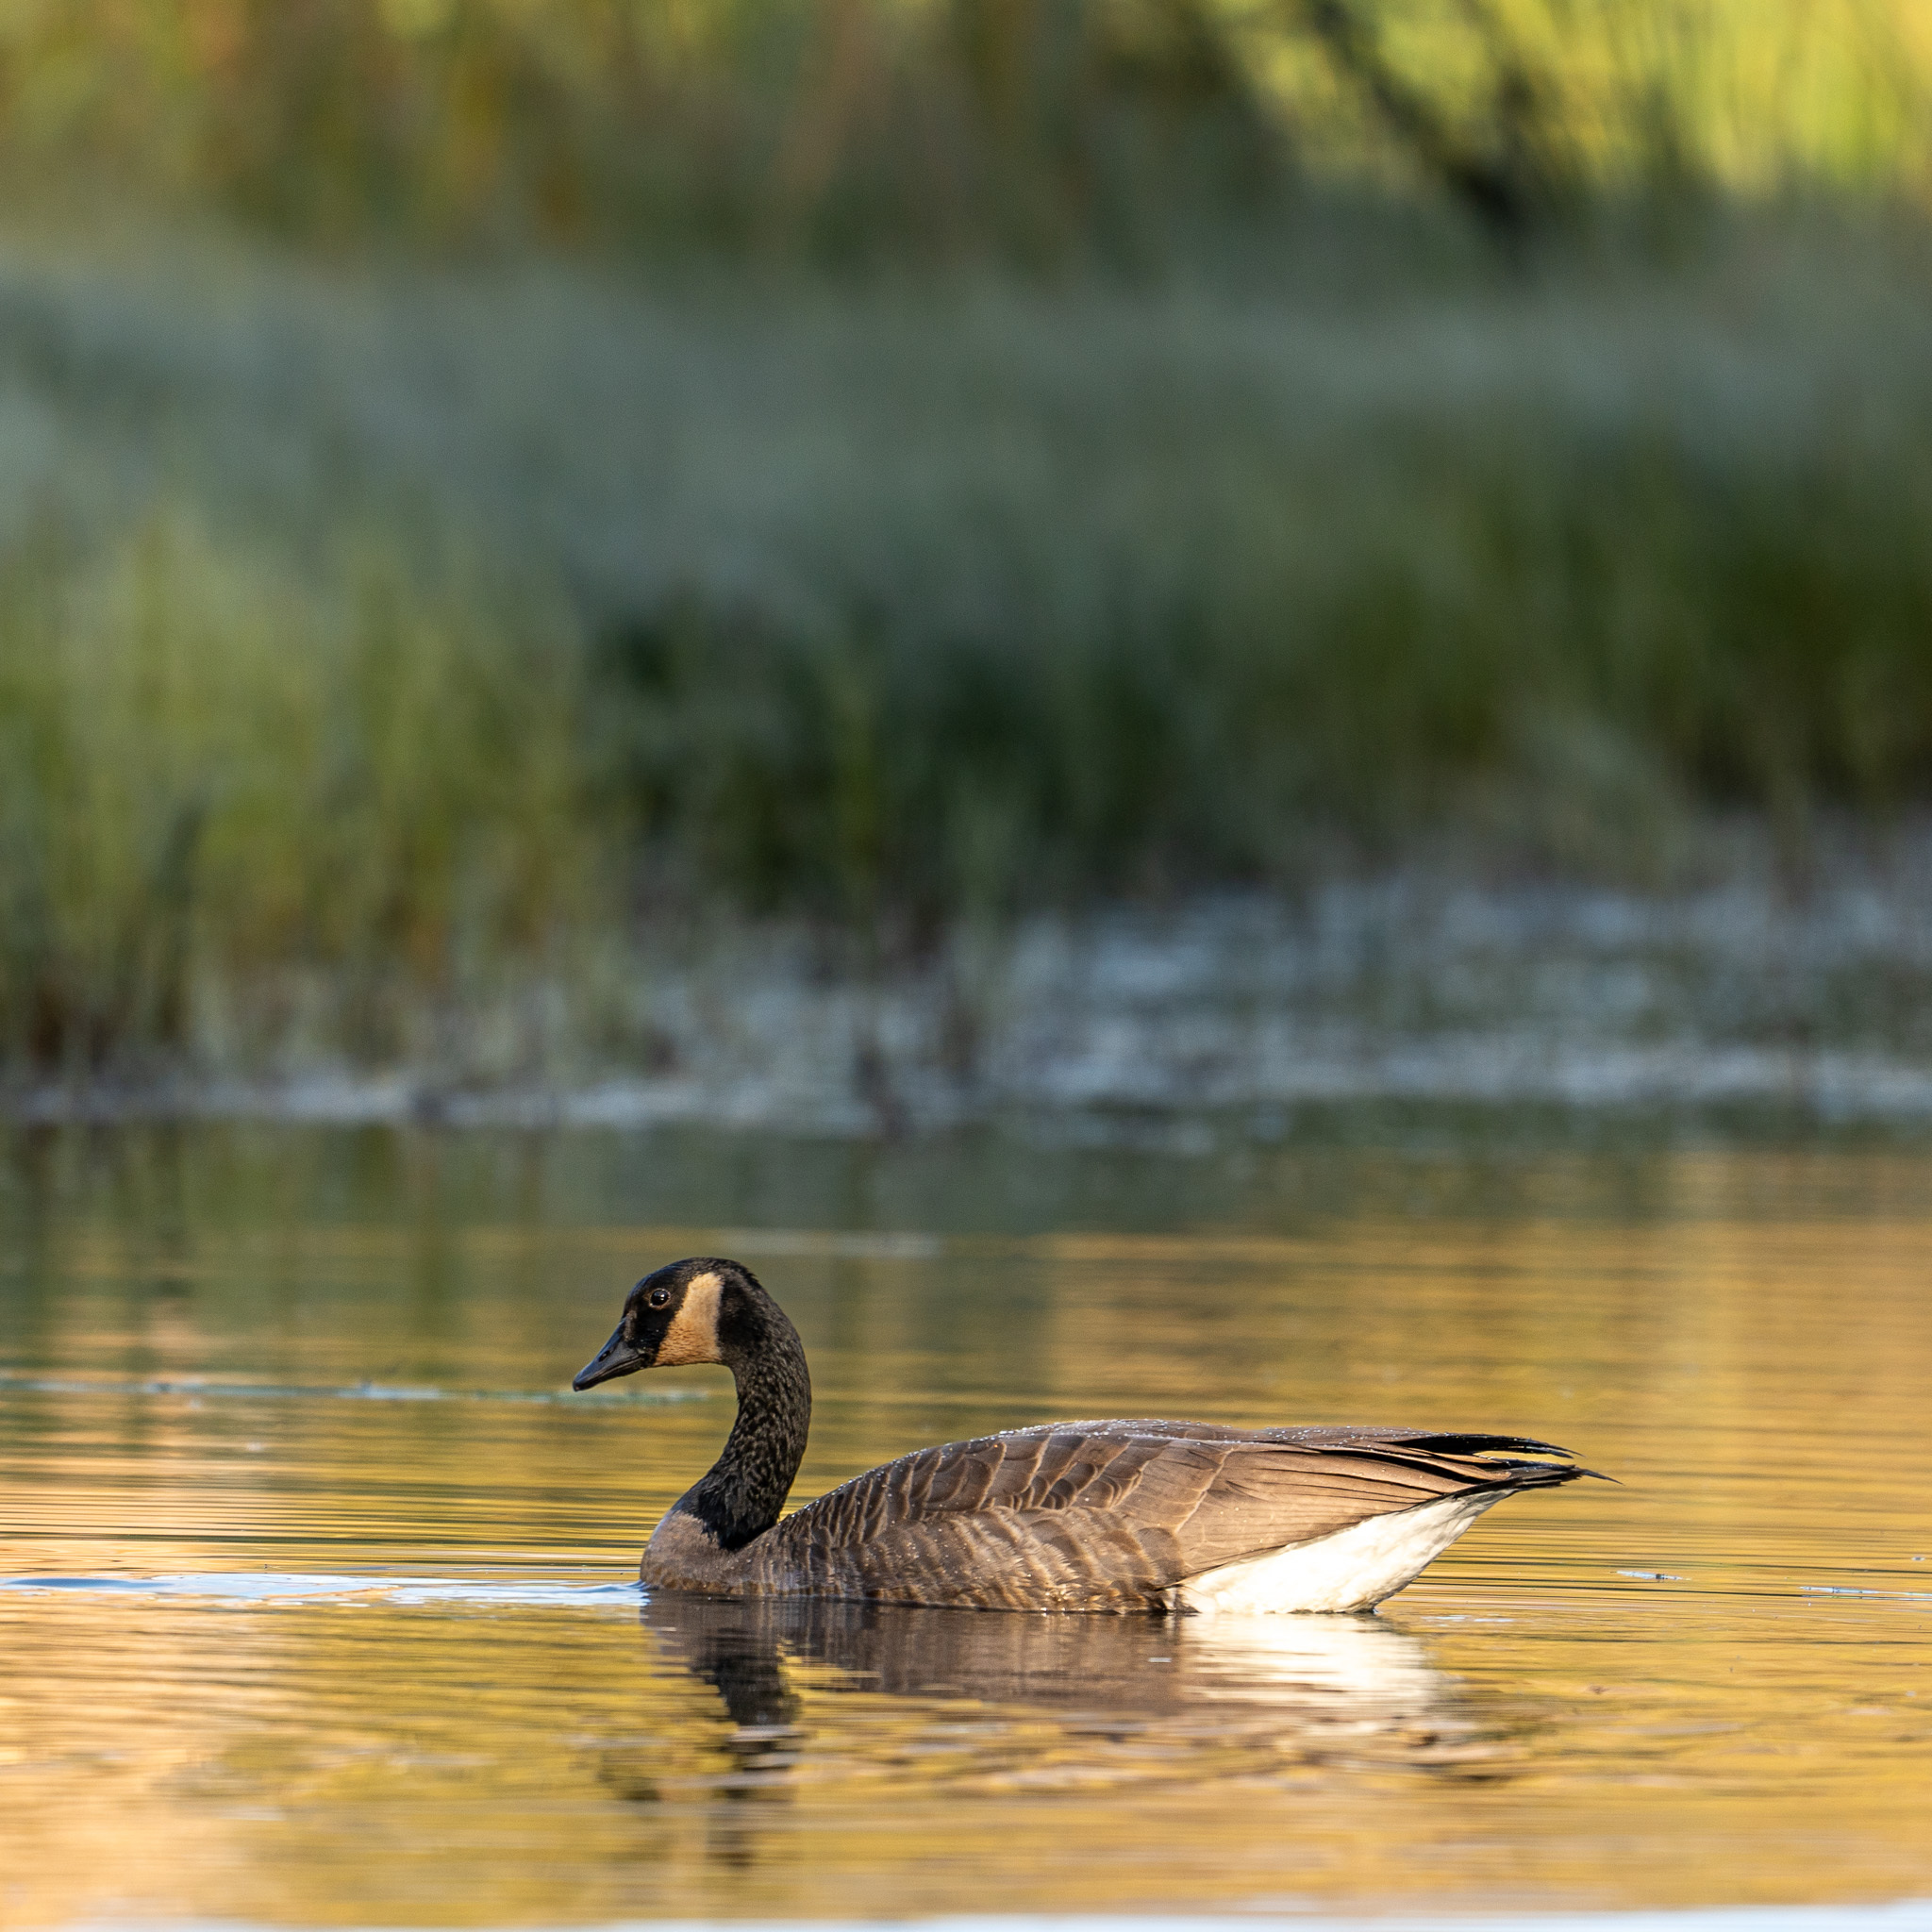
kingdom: Animalia
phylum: Chordata
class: Aves
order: Anseriformes
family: Anatidae
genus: Branta
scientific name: Branta canadensis
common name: Canada goose
